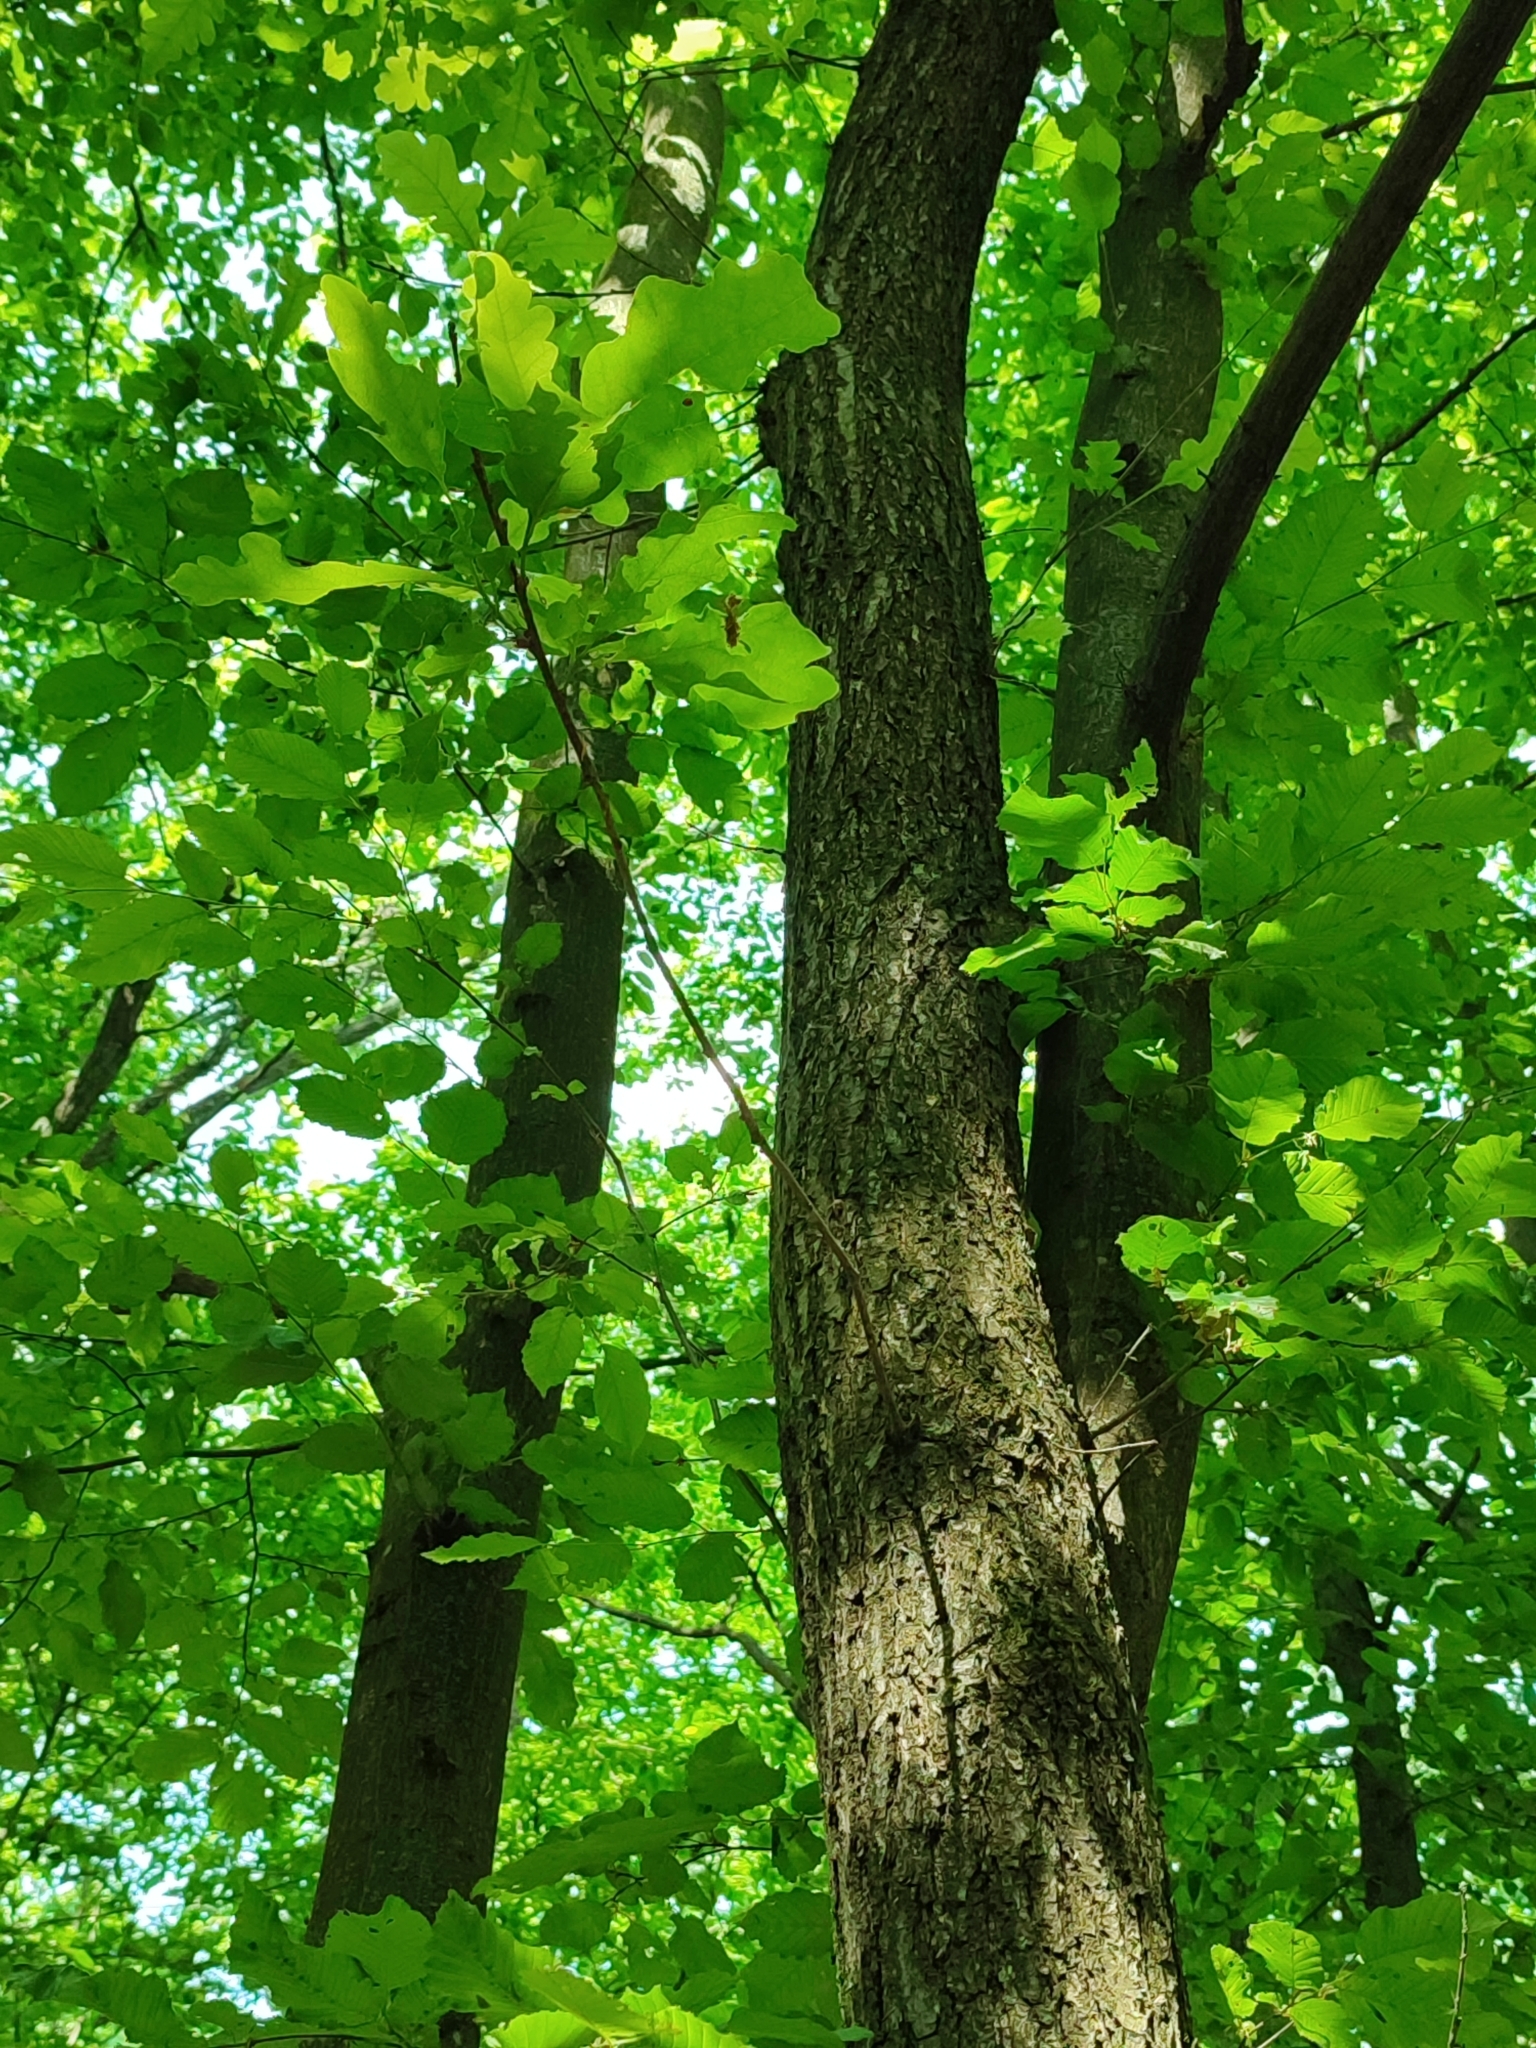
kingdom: Plantae
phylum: Tracheophyta
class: Magnoliopsida
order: Fagales
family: Fagaceae
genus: Quercus
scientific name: Quercus robur
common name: Pedunculate oak
